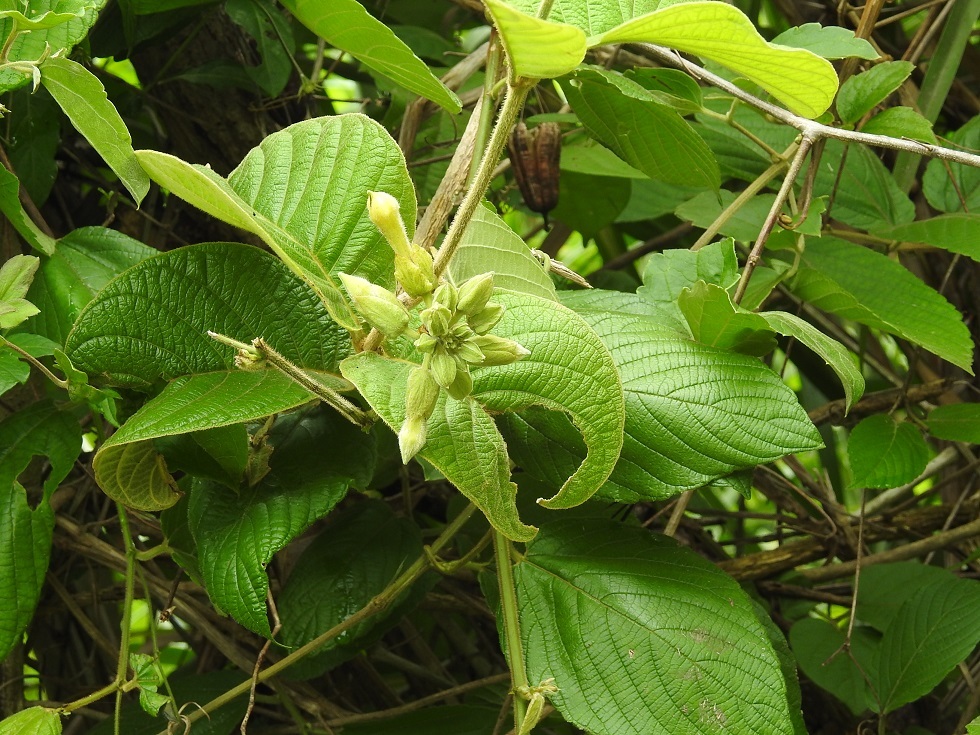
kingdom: Plantae
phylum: Tracheophyta
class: Magnoliopsida
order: Gentianales
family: Apocynaceae
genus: Prestonia
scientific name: Prestonia mexicana
